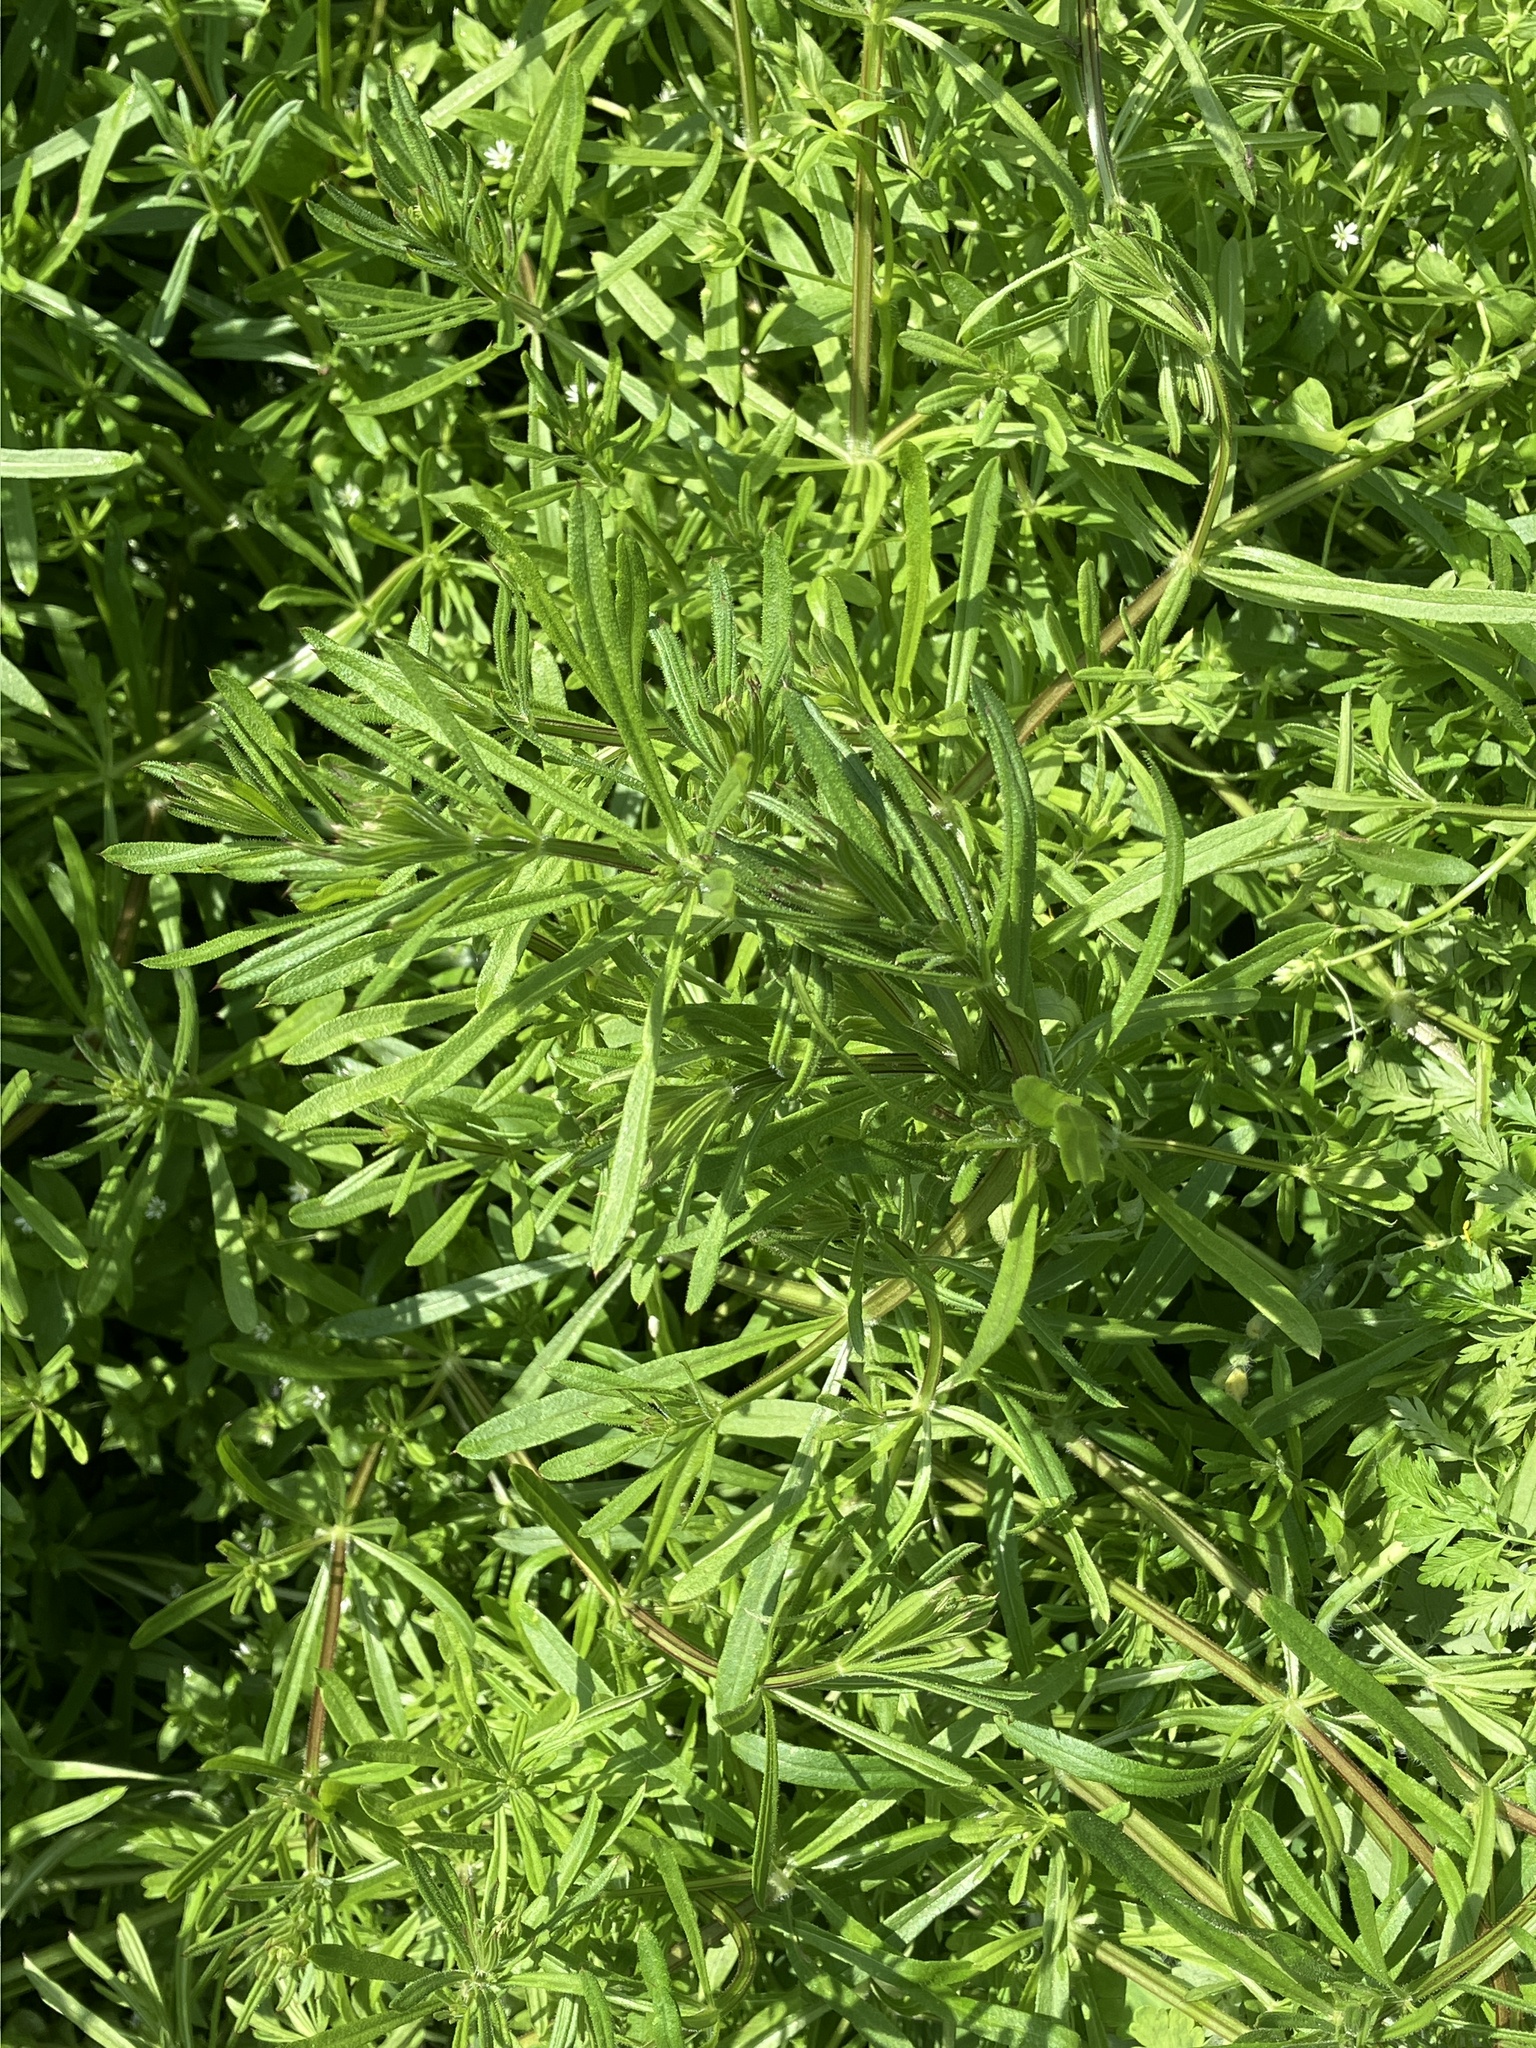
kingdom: Plantae
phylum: Tracheophyta
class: Magnoliopsida
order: Gentianales
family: Rubiaceae
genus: Galium
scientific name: Galium aparine
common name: Cleavers
